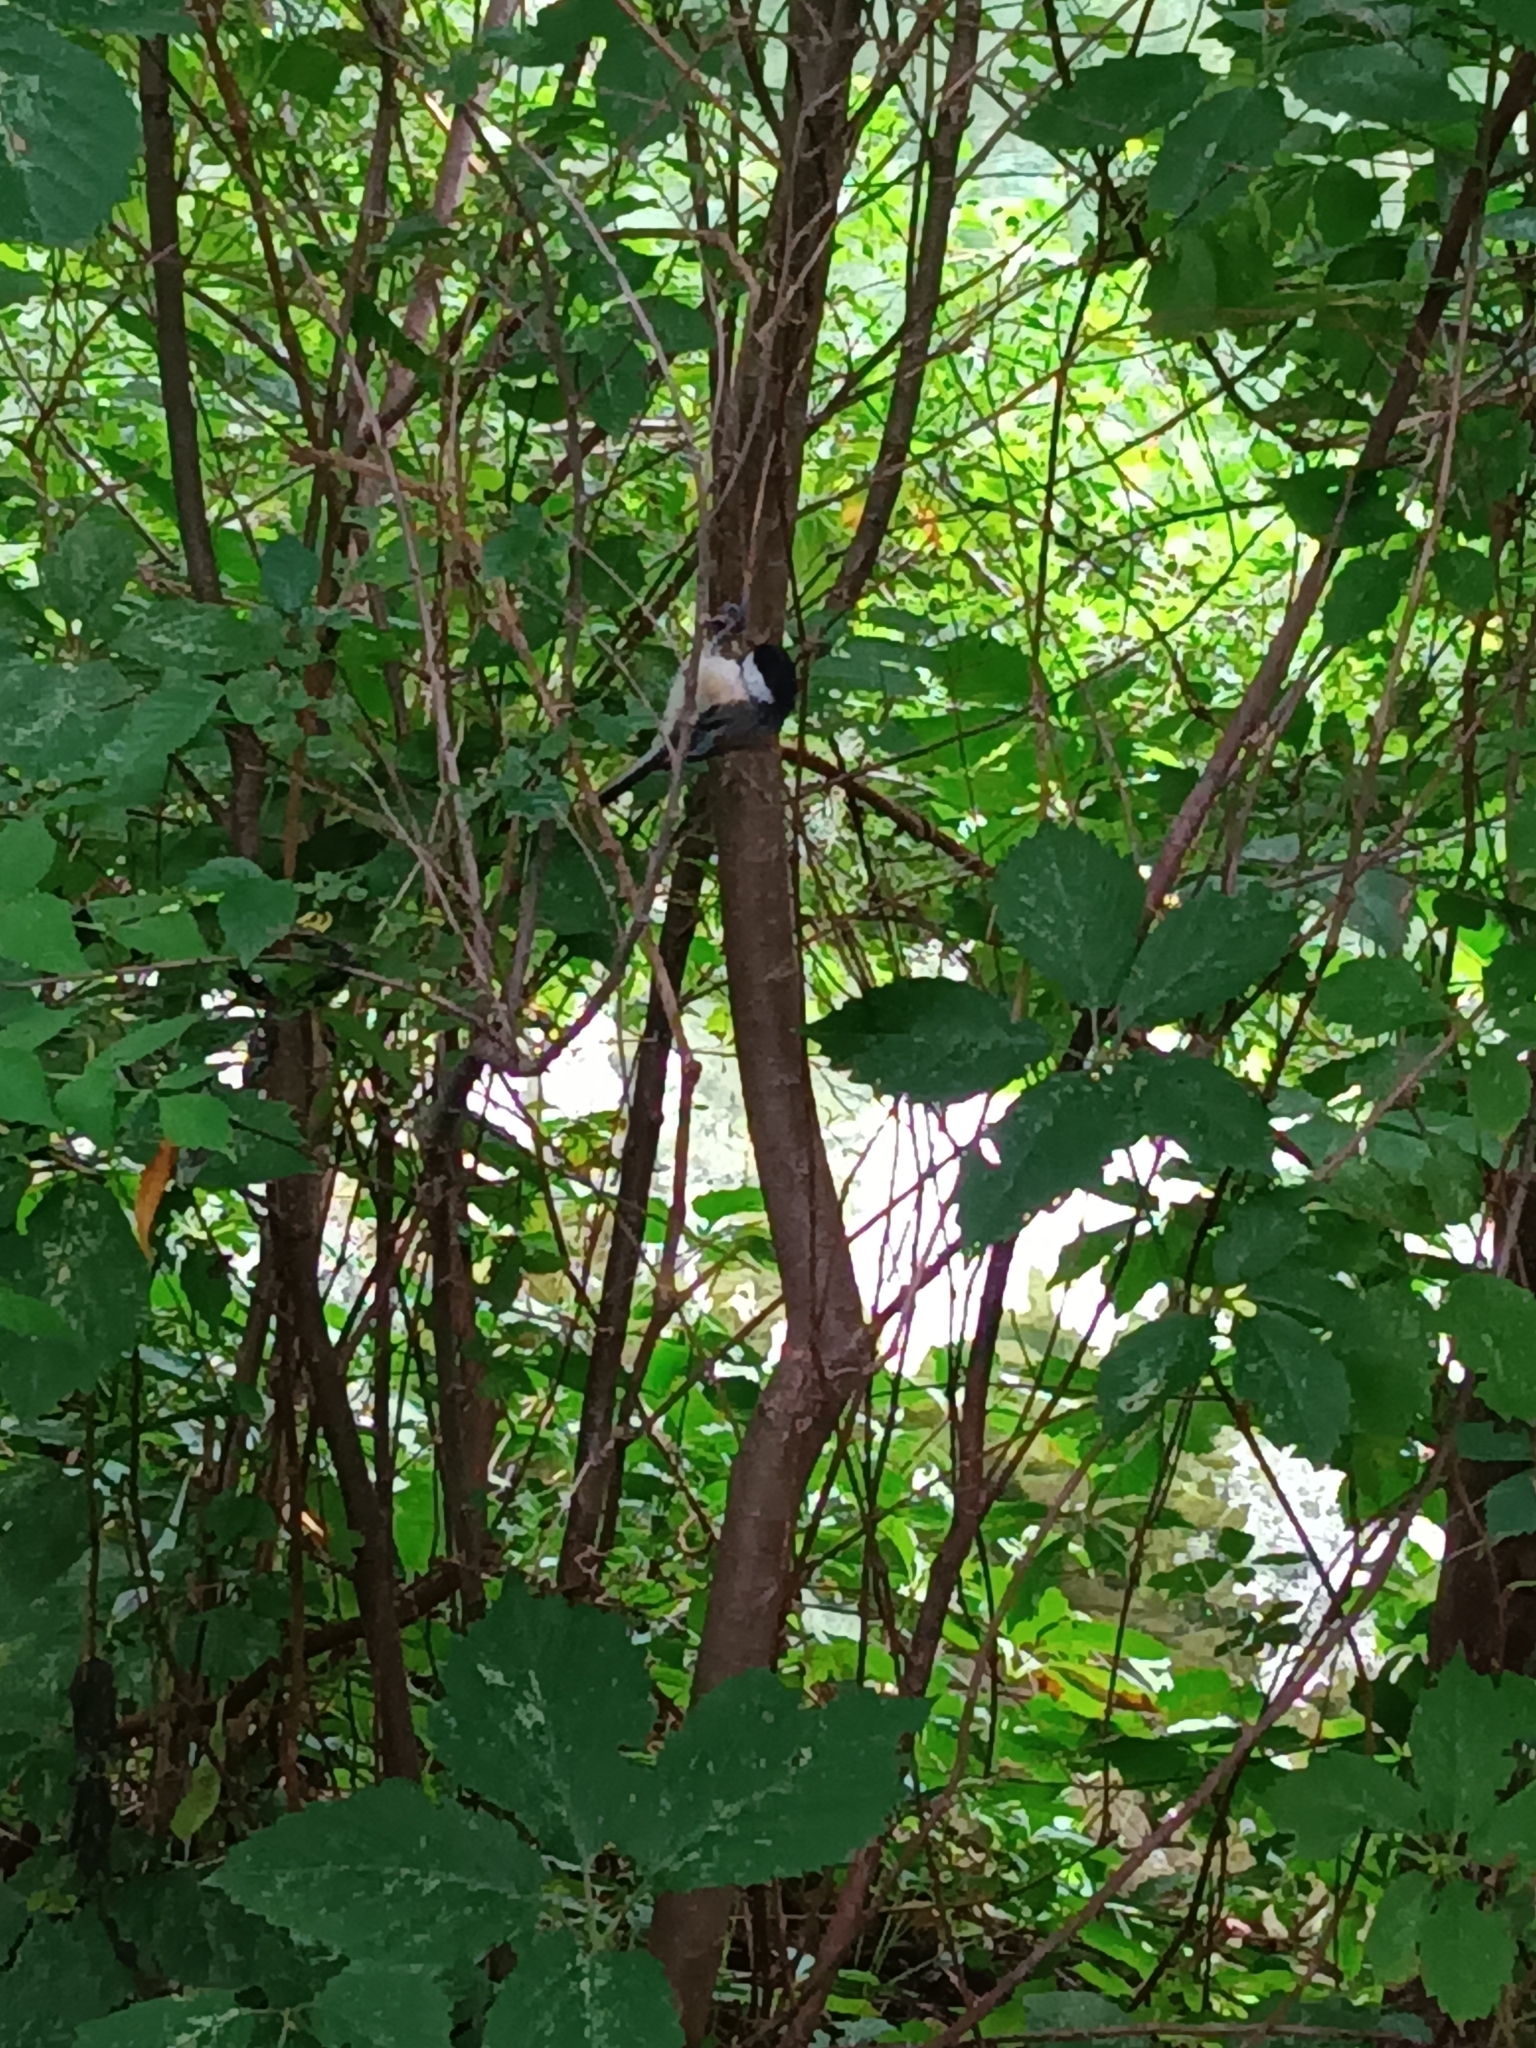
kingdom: Animalia
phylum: Chordata
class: Aves
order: Passeriformes
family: Paridae
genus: Poecile
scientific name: Poecile atricapillus
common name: Black-capped chickadee
